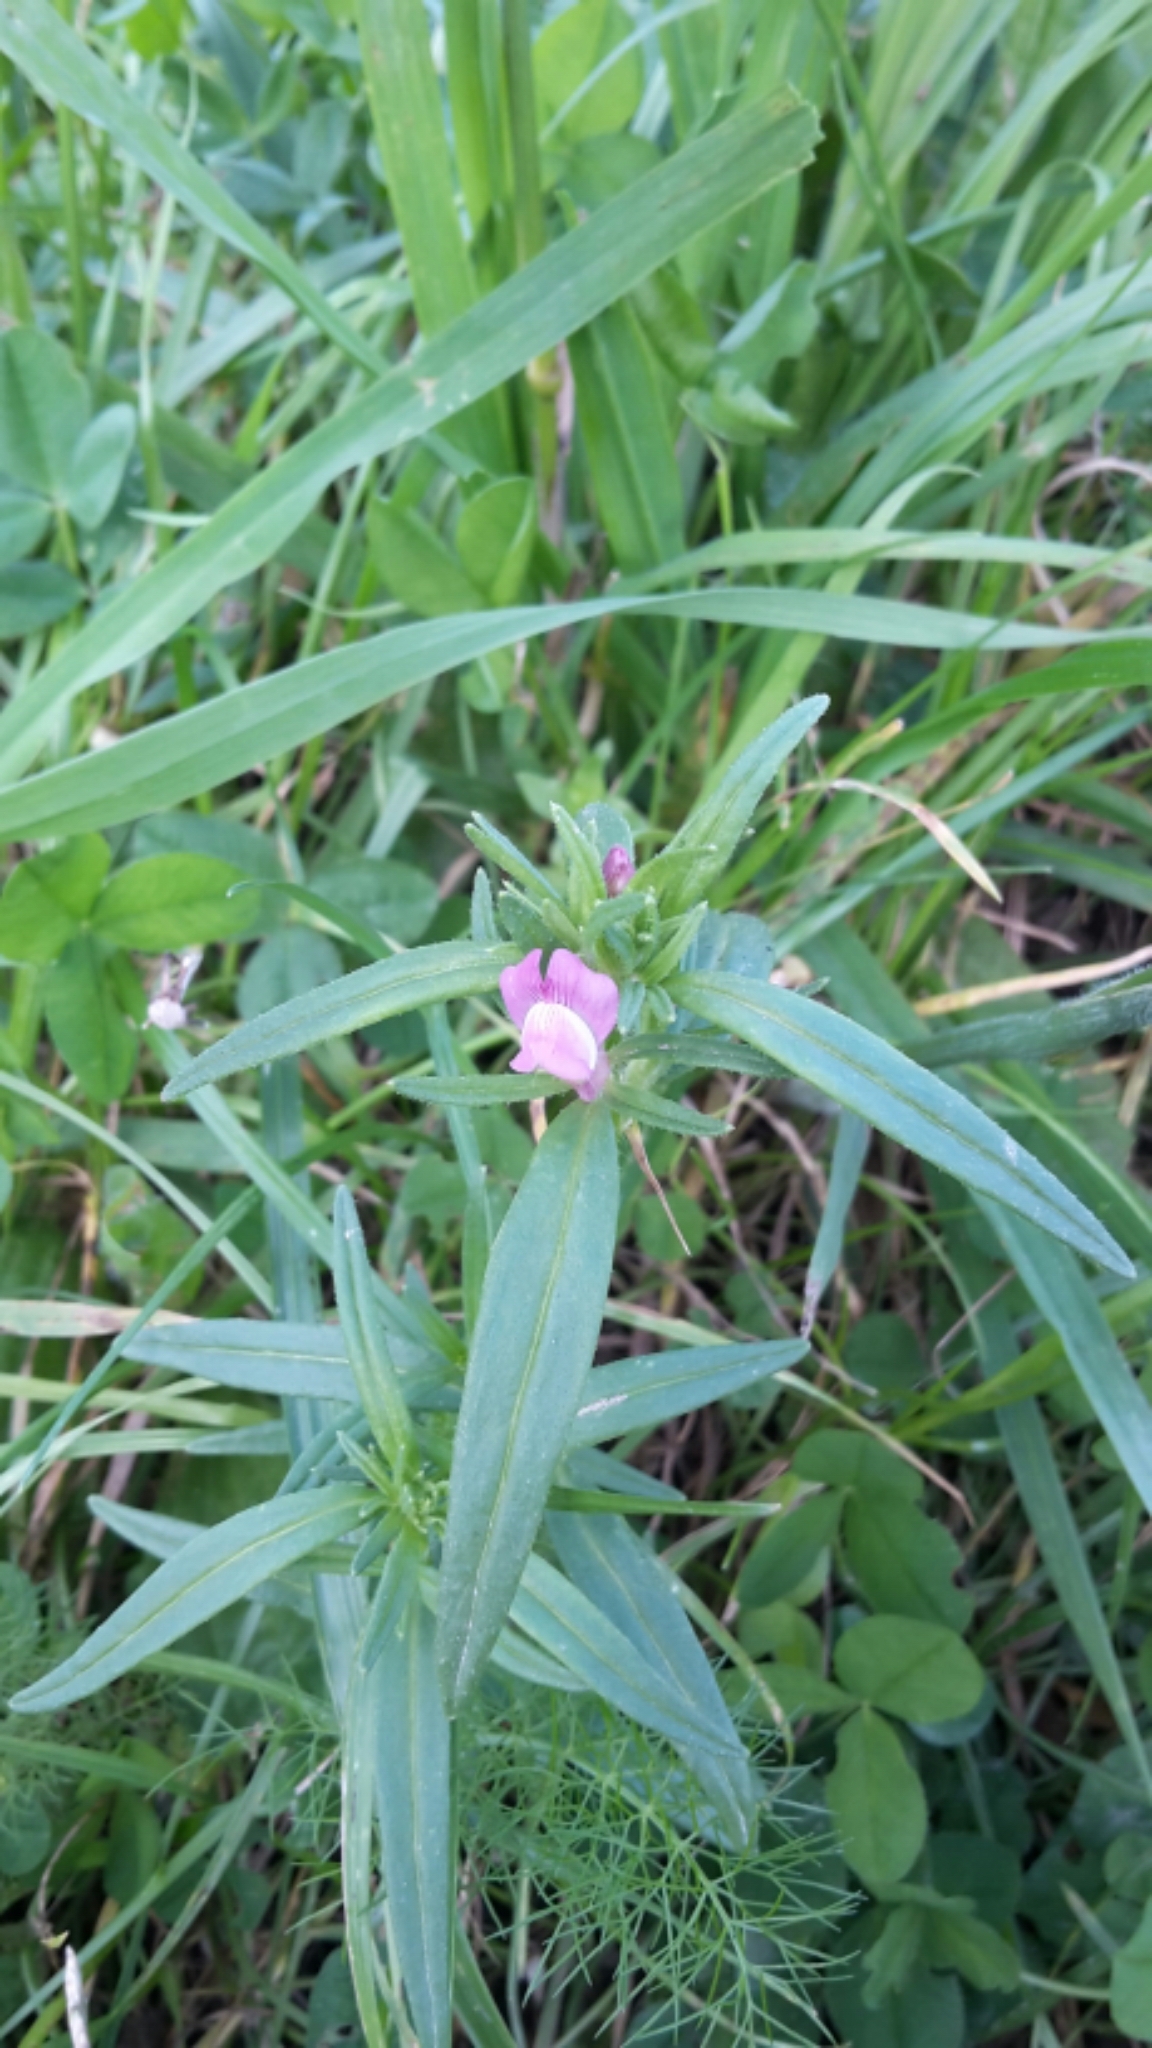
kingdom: Plantae
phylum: Tracheophyta
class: Magnoliopsida
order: Lamiales
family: Plantaginaceae
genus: Misopates
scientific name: Misopates orontium
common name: Weasel's-snout
